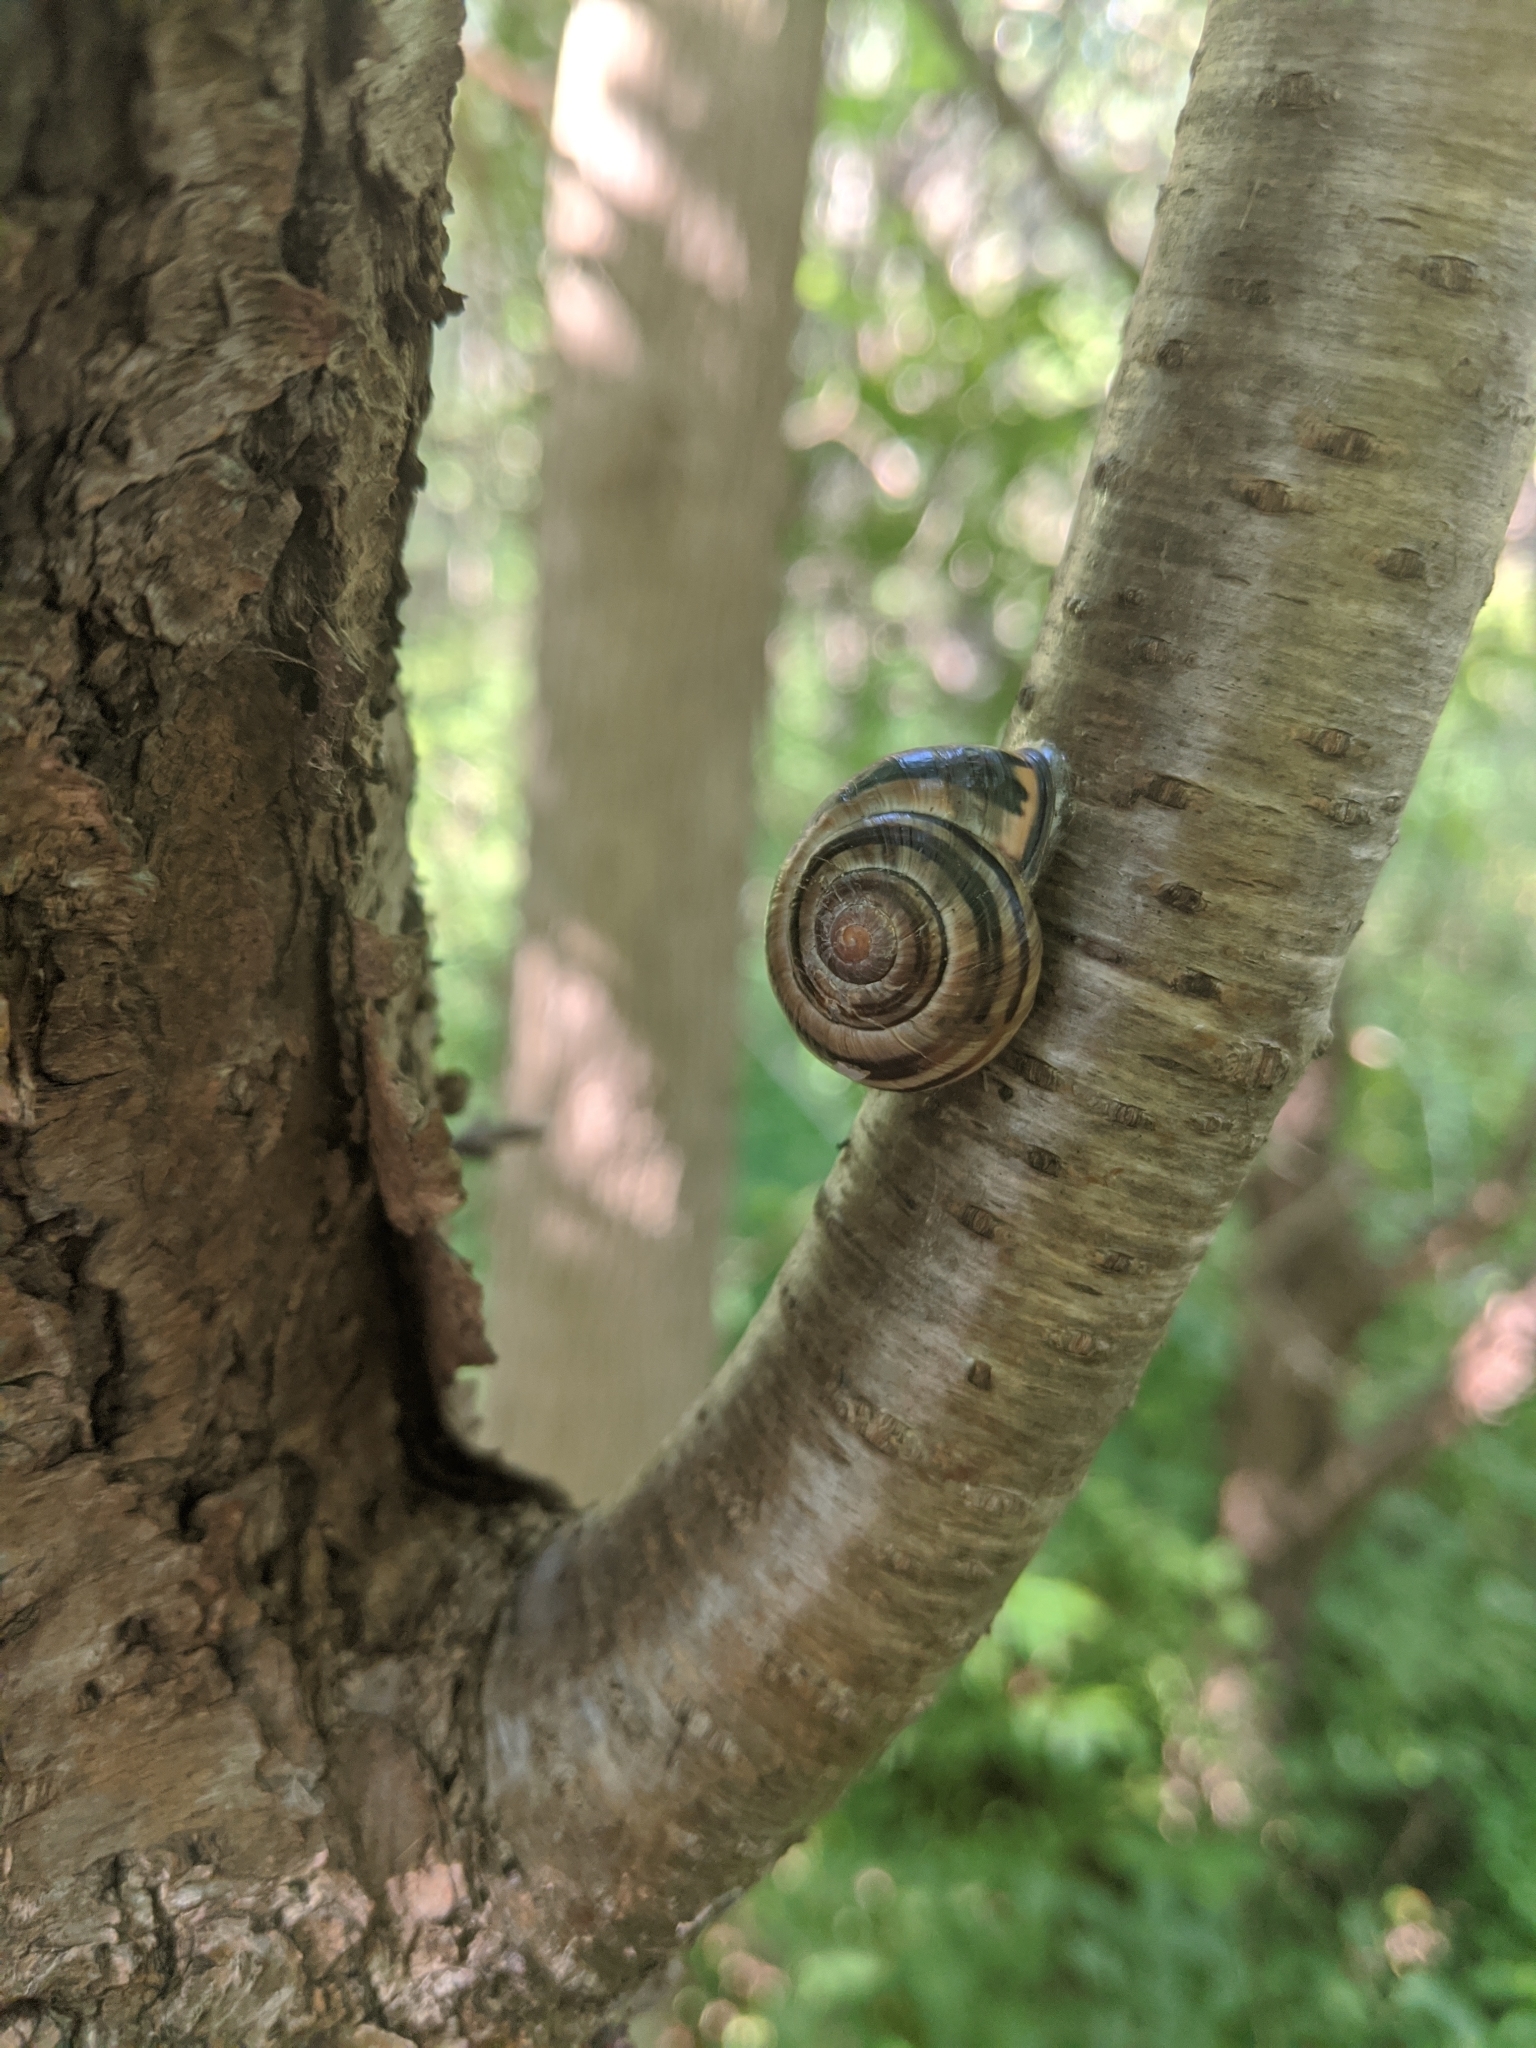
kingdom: Animalia
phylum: Mollusca
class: Gastropoda
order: Stylommatophora
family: Helicidae
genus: Cepaea
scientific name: Cepaea nemoralis
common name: Grovesnail
